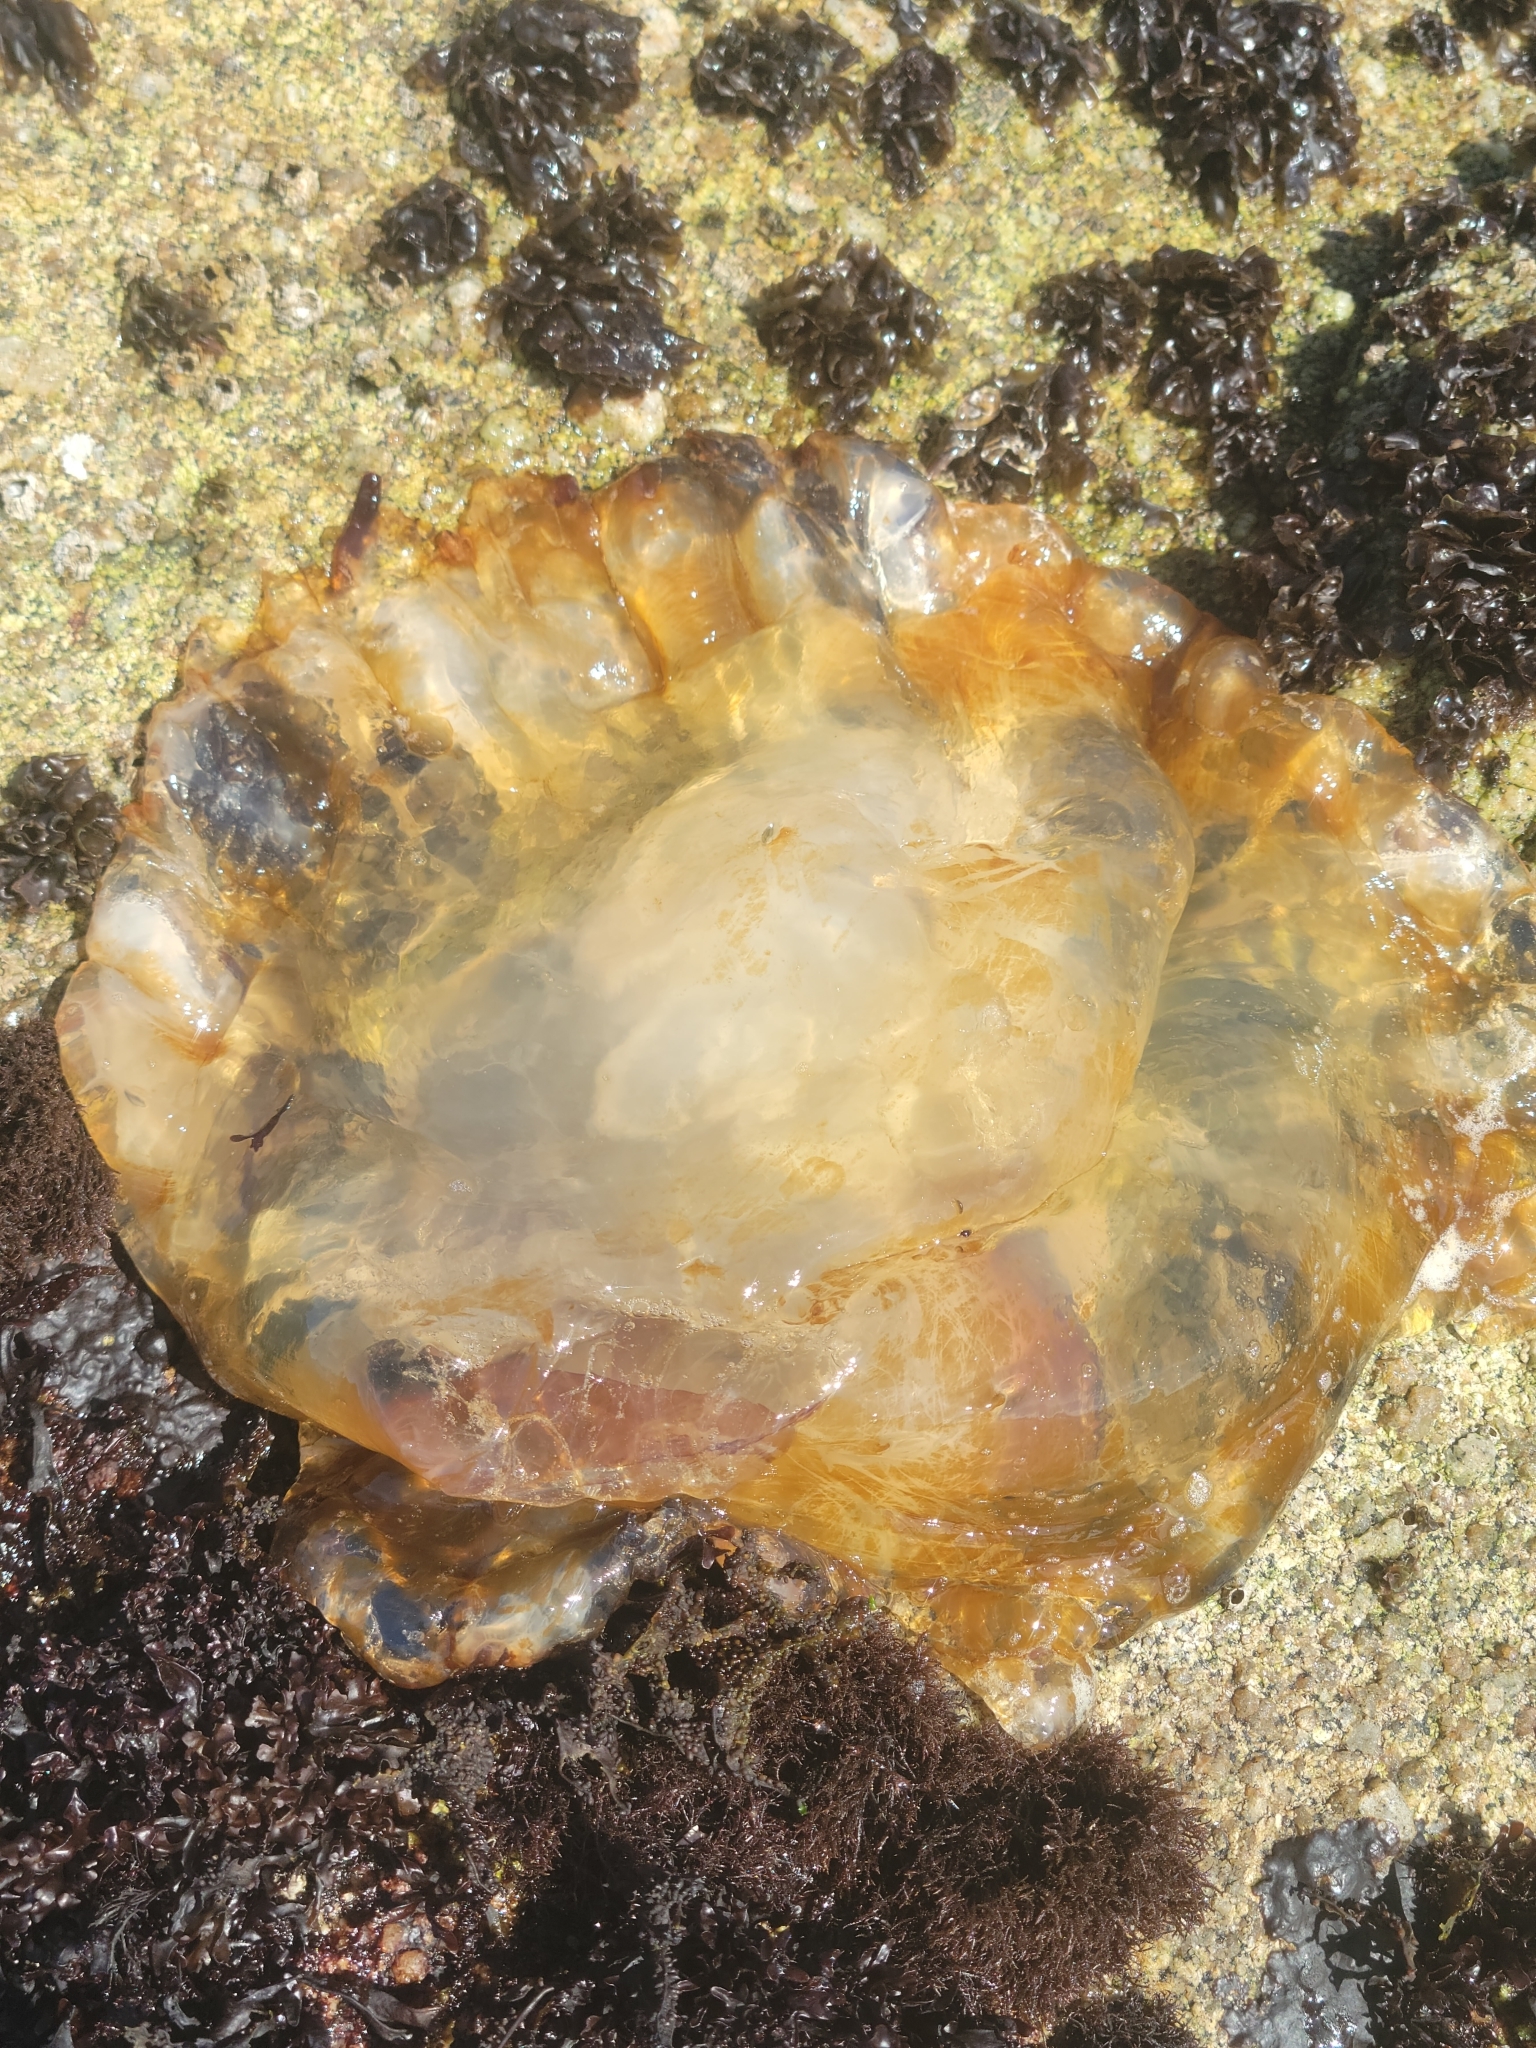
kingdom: Animalia
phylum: Cnidaria
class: Scyphozoa
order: Semaeostomeae
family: Pelagiidae
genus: Chrysaora
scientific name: Chrysaora fuscescens
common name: Sea nettle
